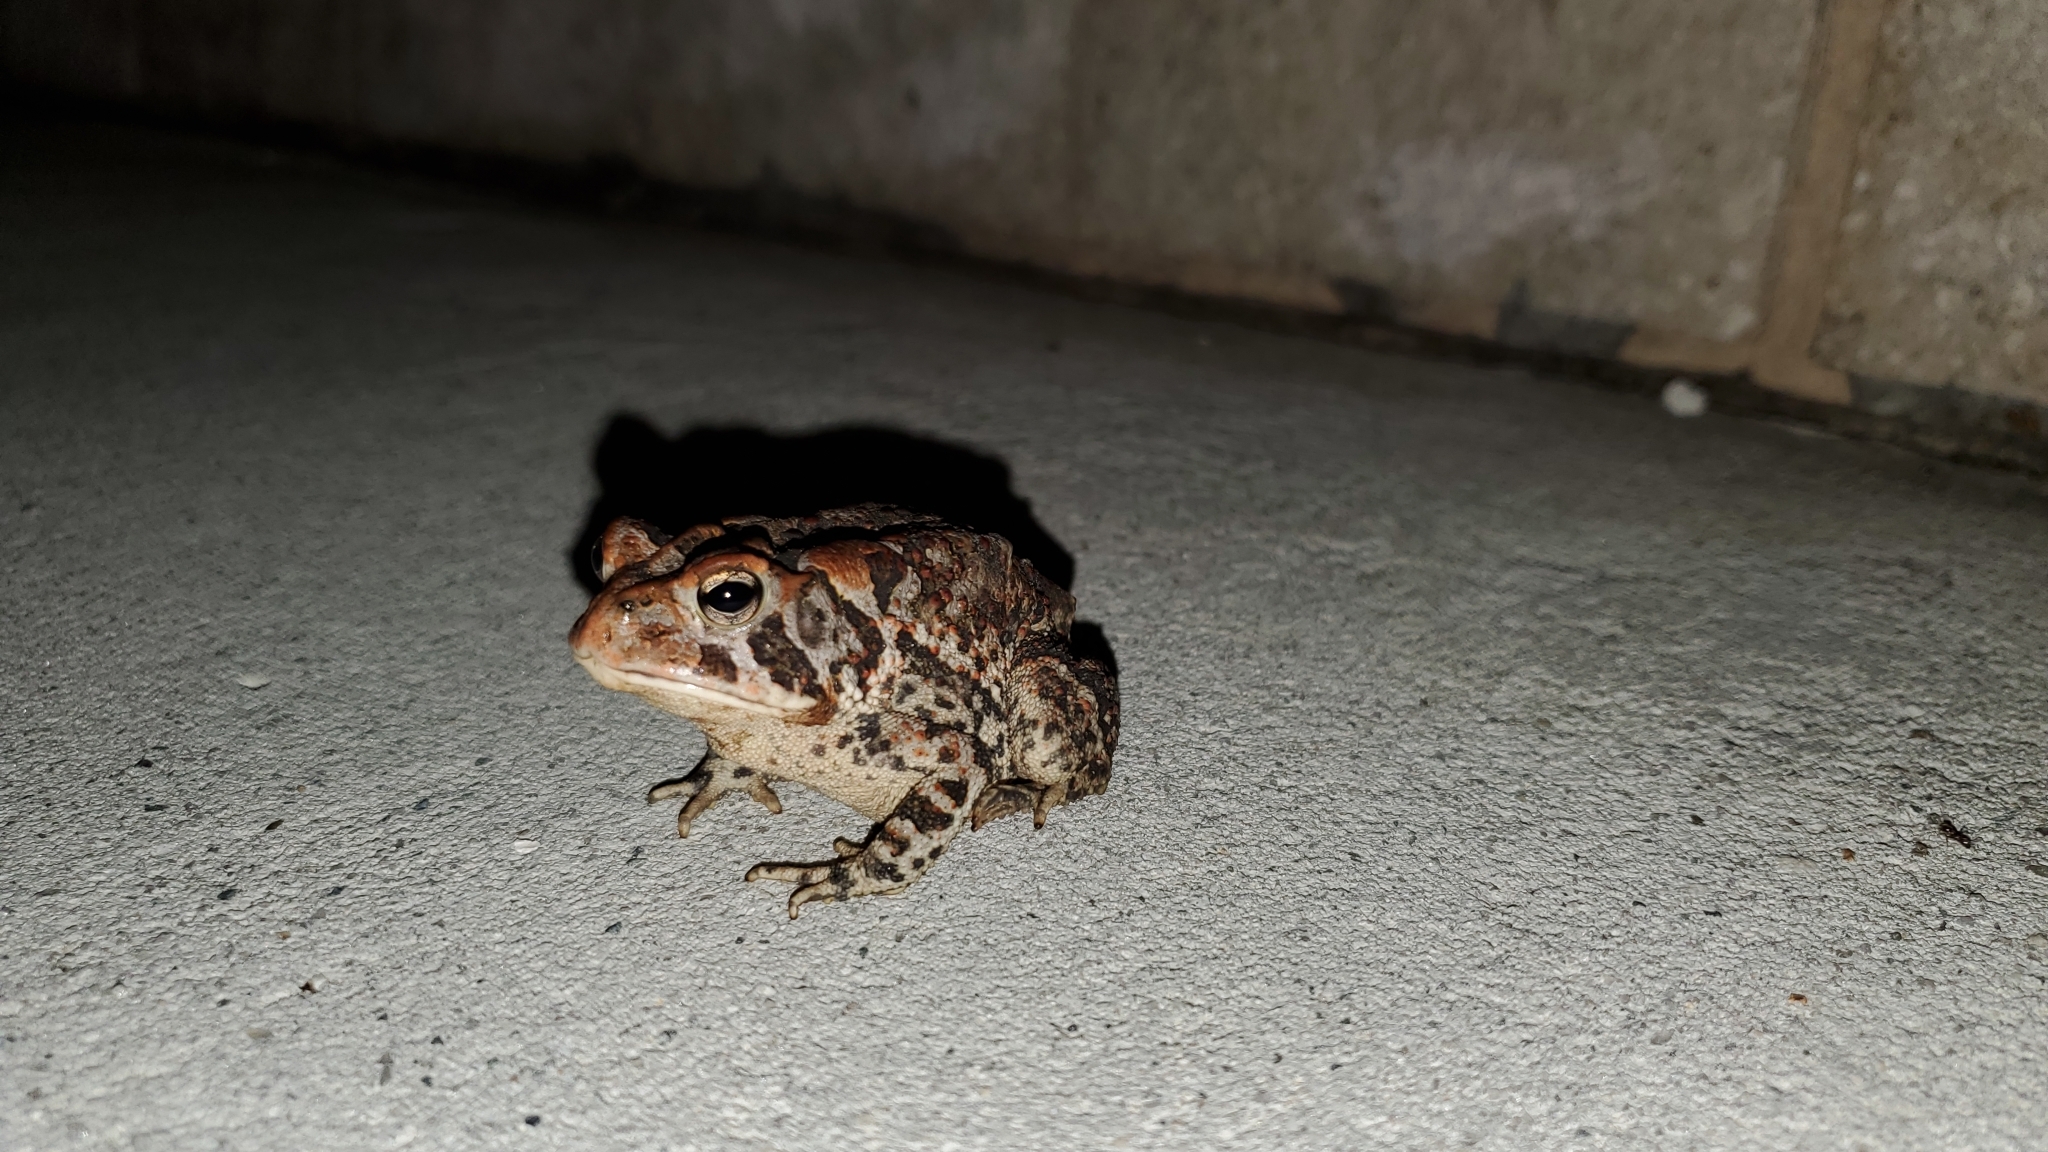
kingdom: Animalia
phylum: Chordata
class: Amphibia
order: Anura
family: Bufonidae
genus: Anaxyrus
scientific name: Anaxyrus terrestris
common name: Southern toad
